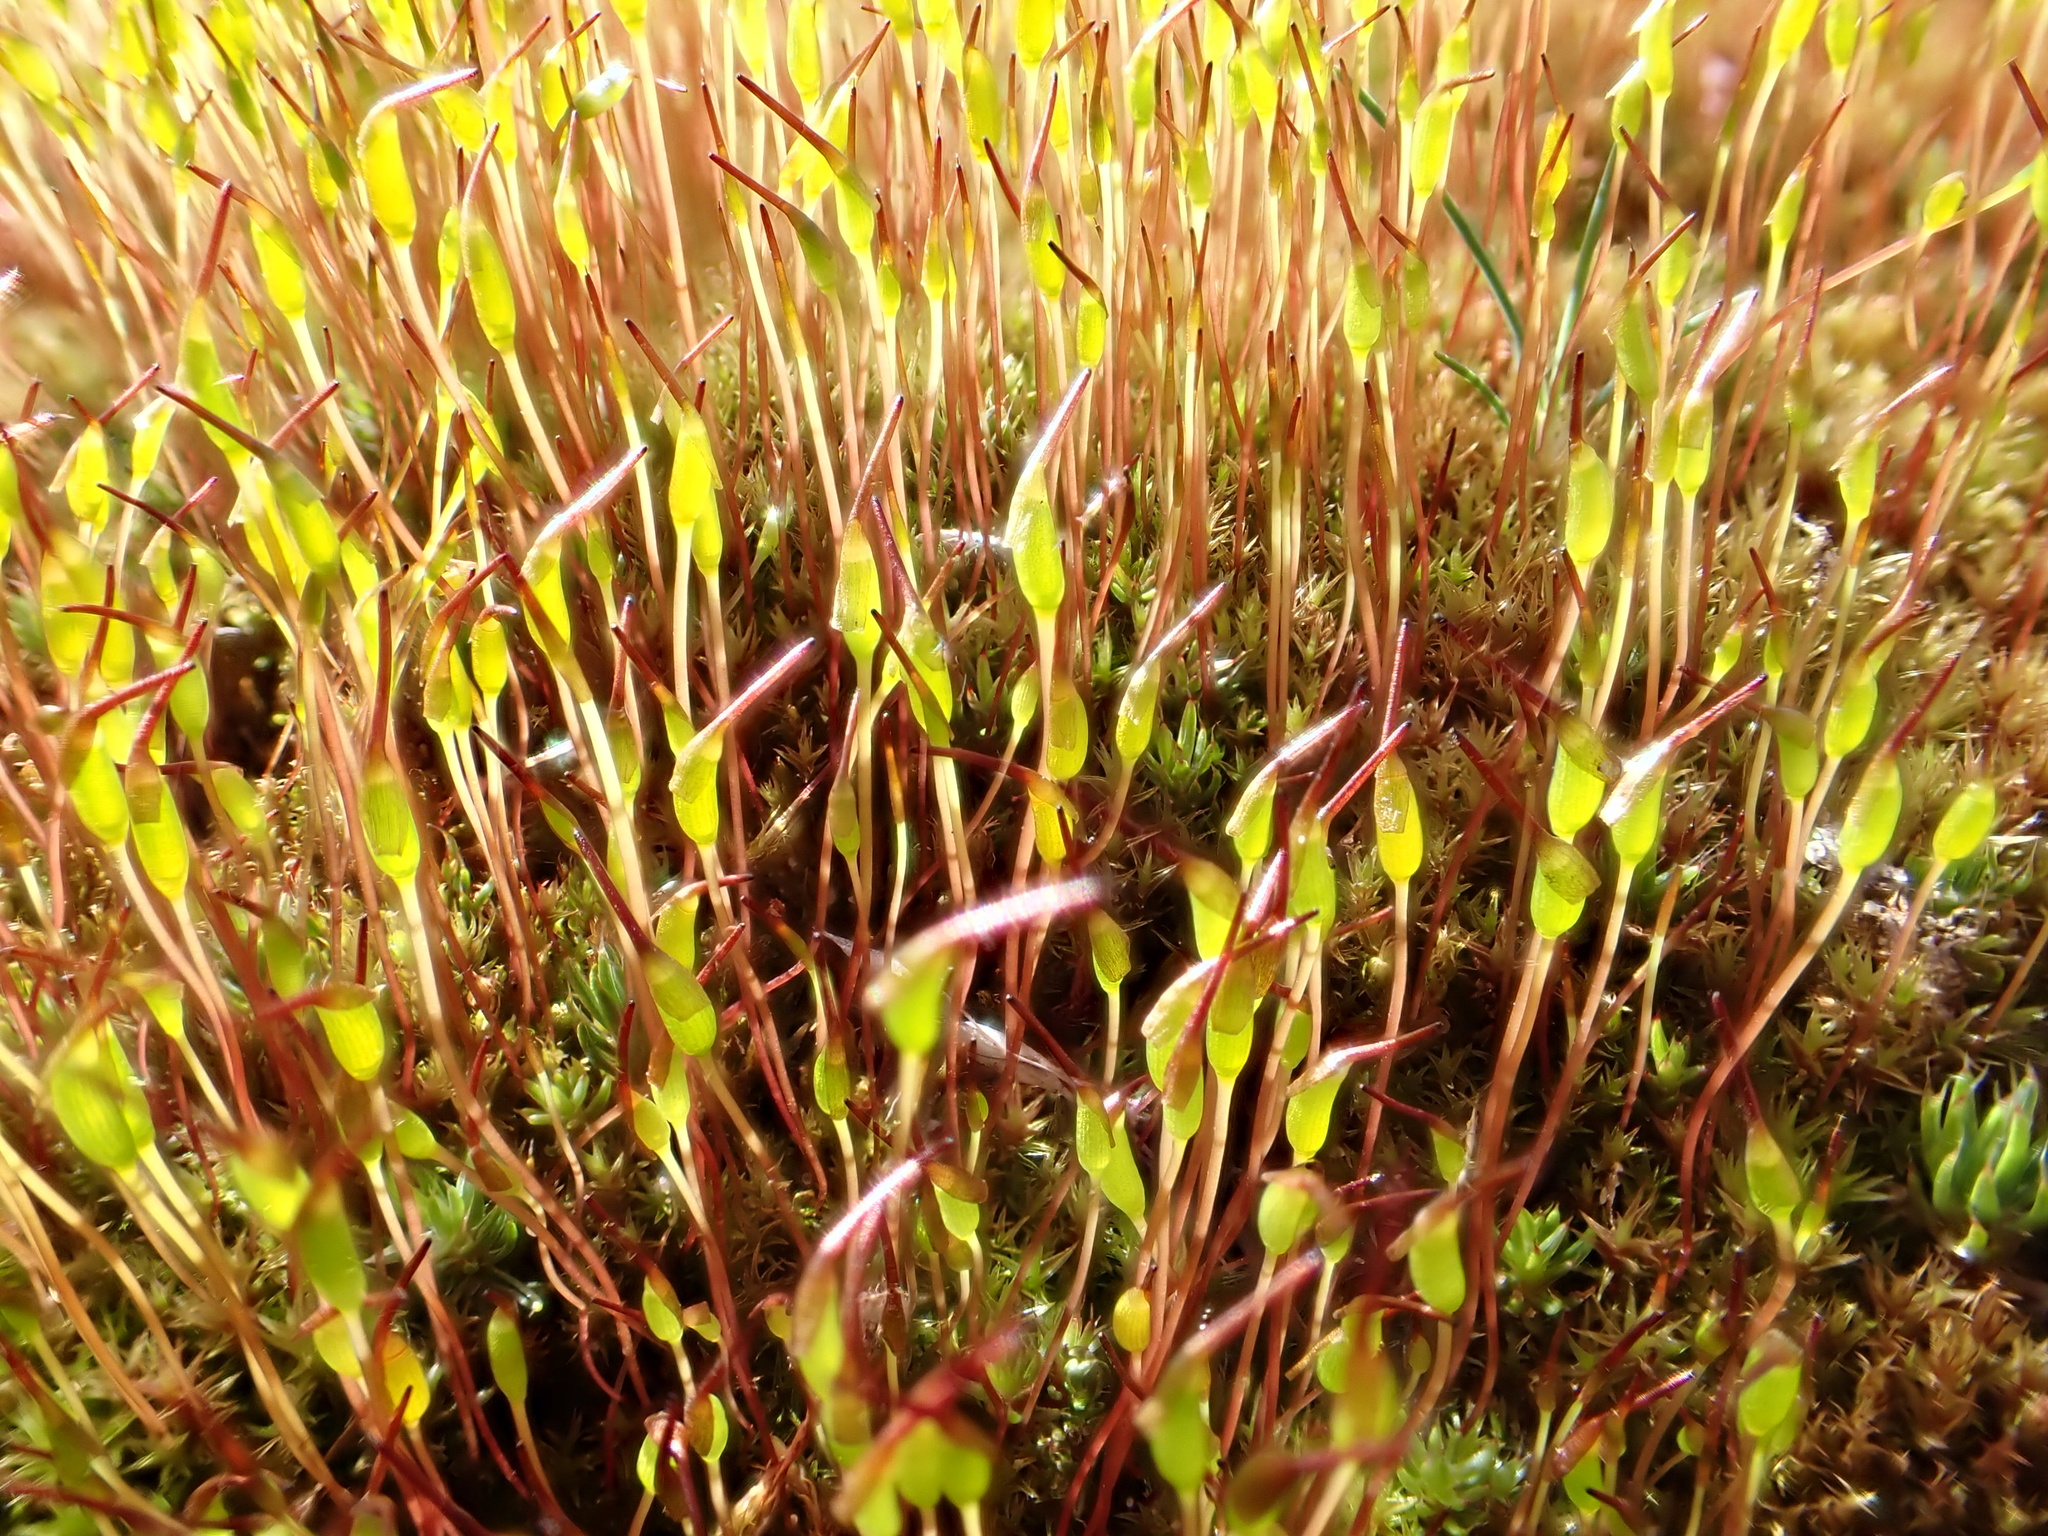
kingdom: Plantae
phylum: Bryophyta
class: Bryopsida
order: Dicranales
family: Ditrichaceae
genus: Ceratodon
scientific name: Ceratodon purpureus
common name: Redshank
